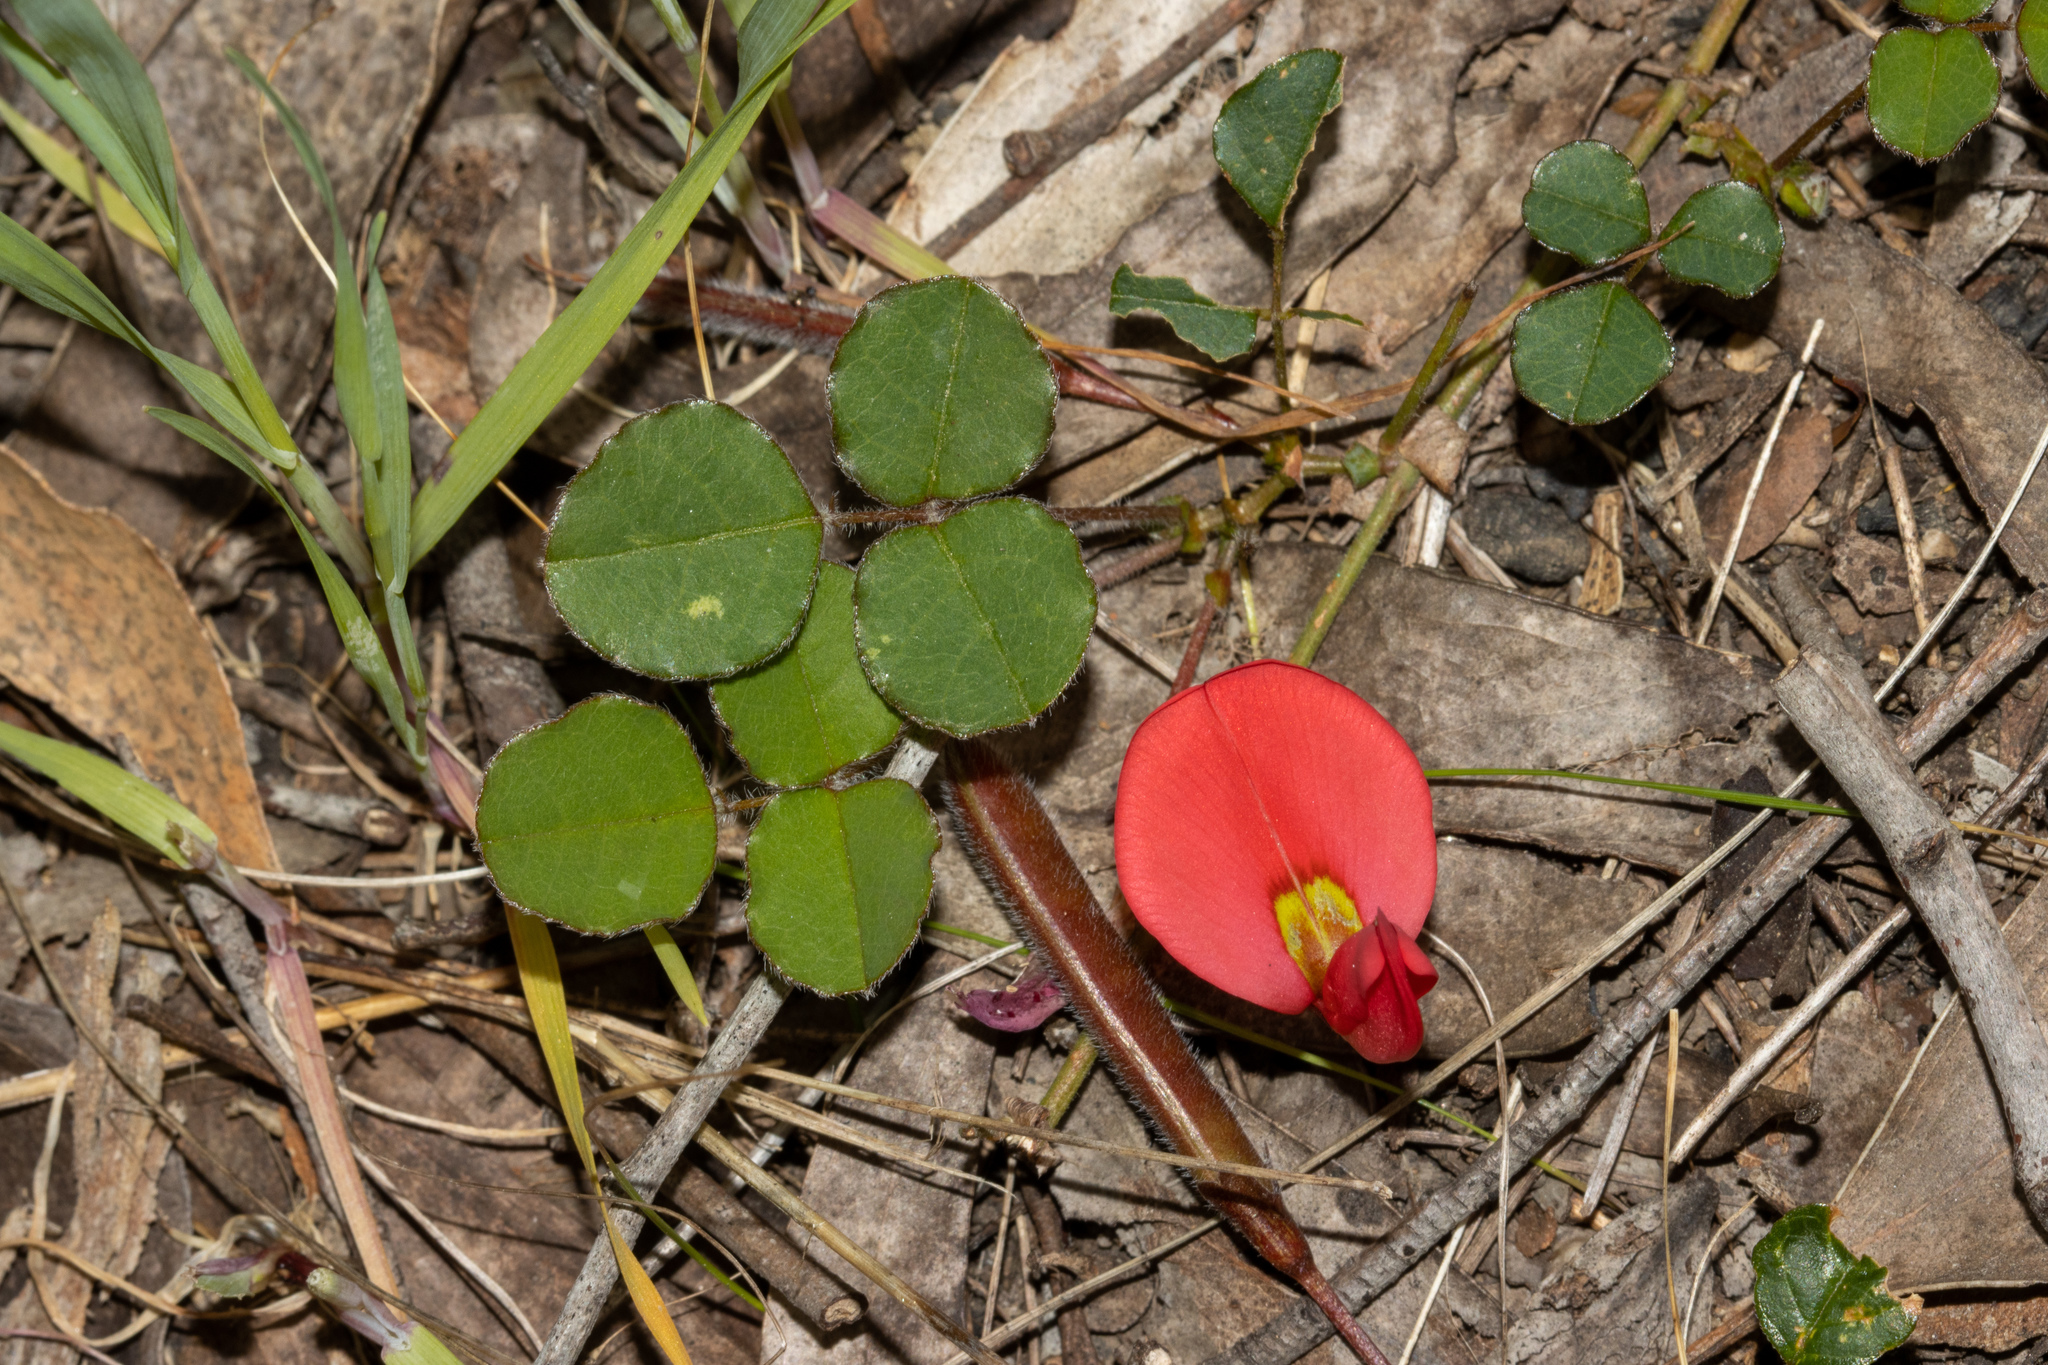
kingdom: Plantae
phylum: Tracheophyta
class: Magnoliopsida
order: Fabales
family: Fabaceae
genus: Kennedia
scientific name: Kennedia prostrata
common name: Running-postman
